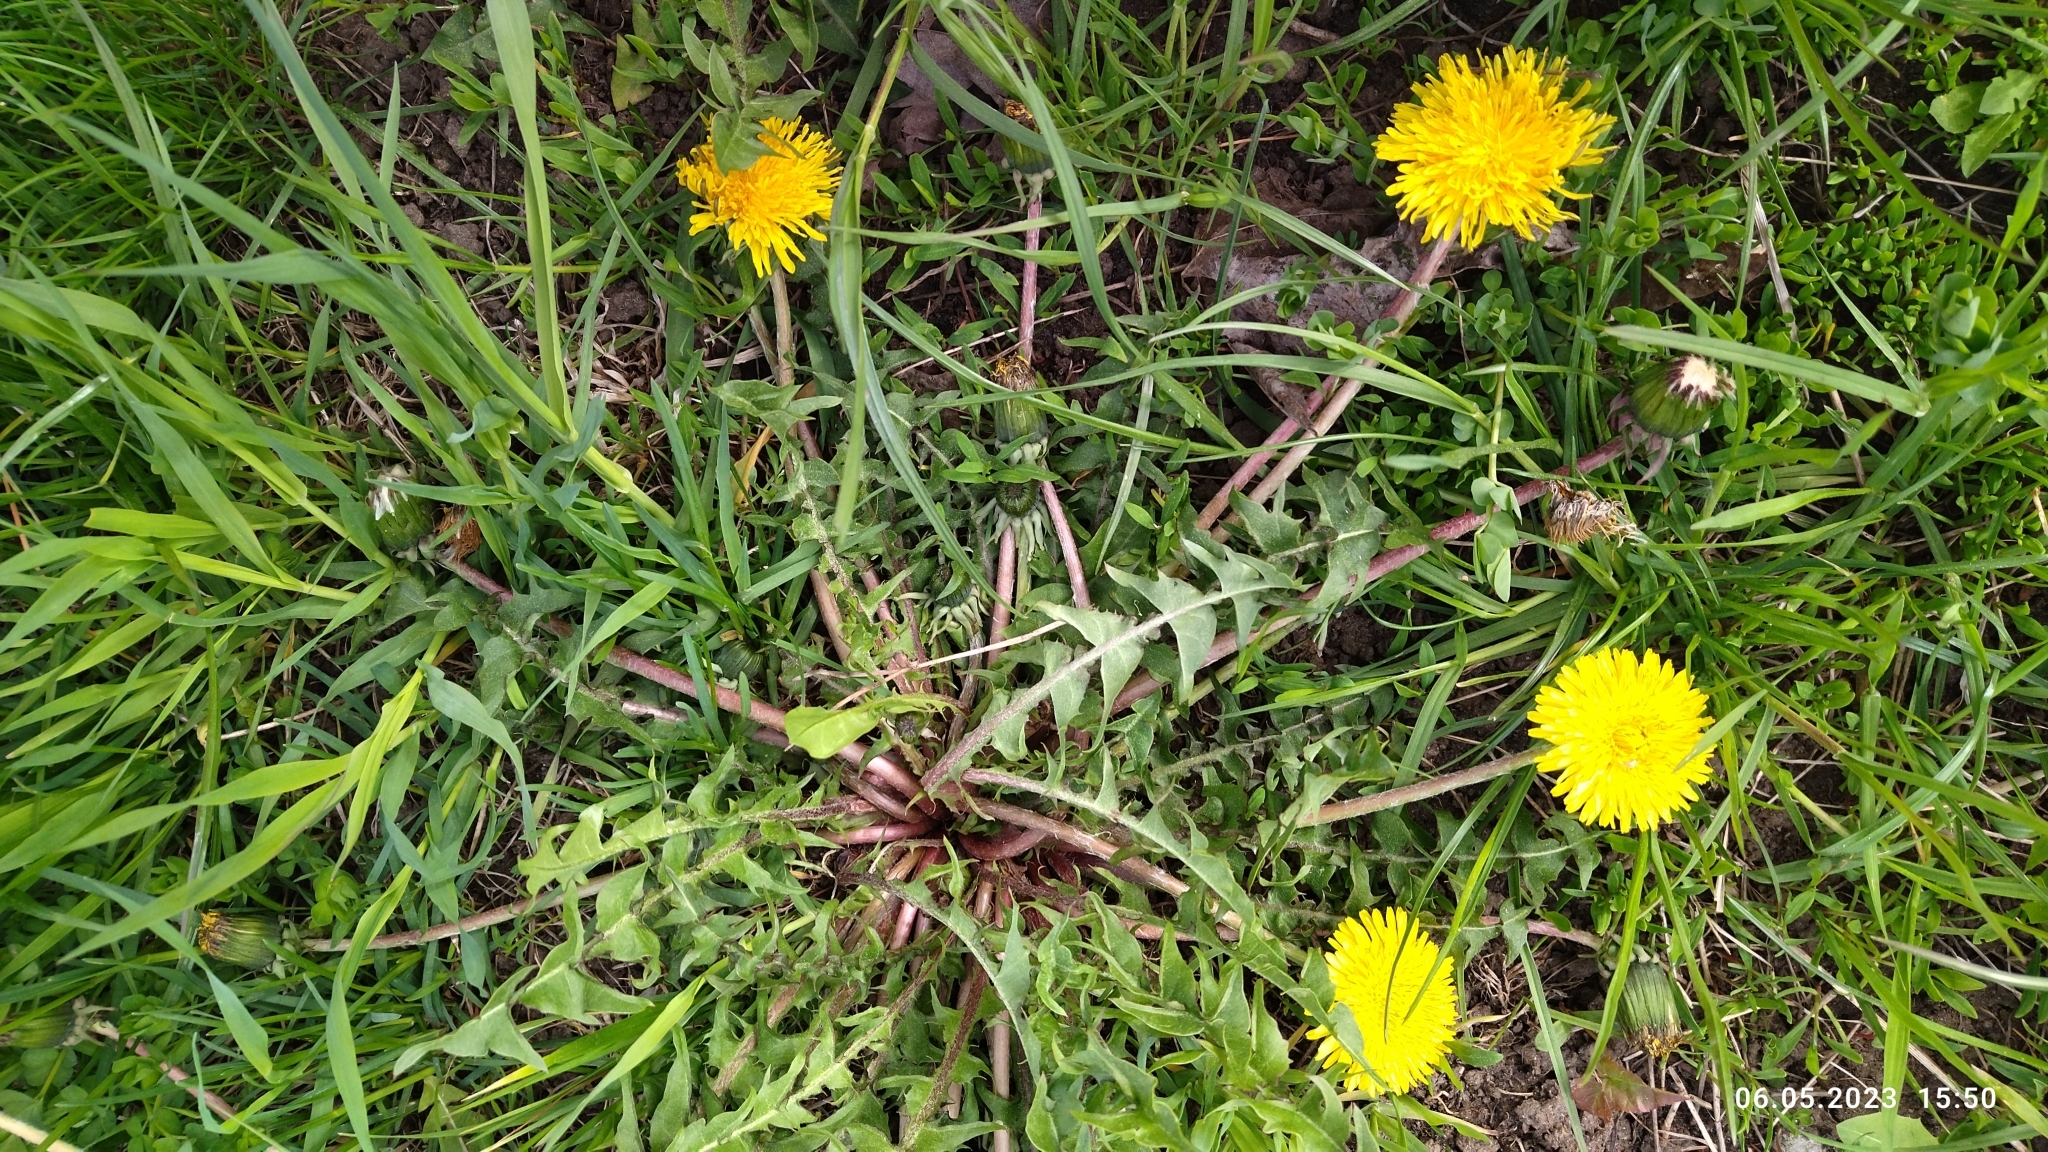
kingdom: Plantae
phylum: Tracheophyta
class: Magnoliopsida
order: Asterales
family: Asteraceae
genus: Taraxacum
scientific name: Taraxacum officinale
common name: Common dandelion
